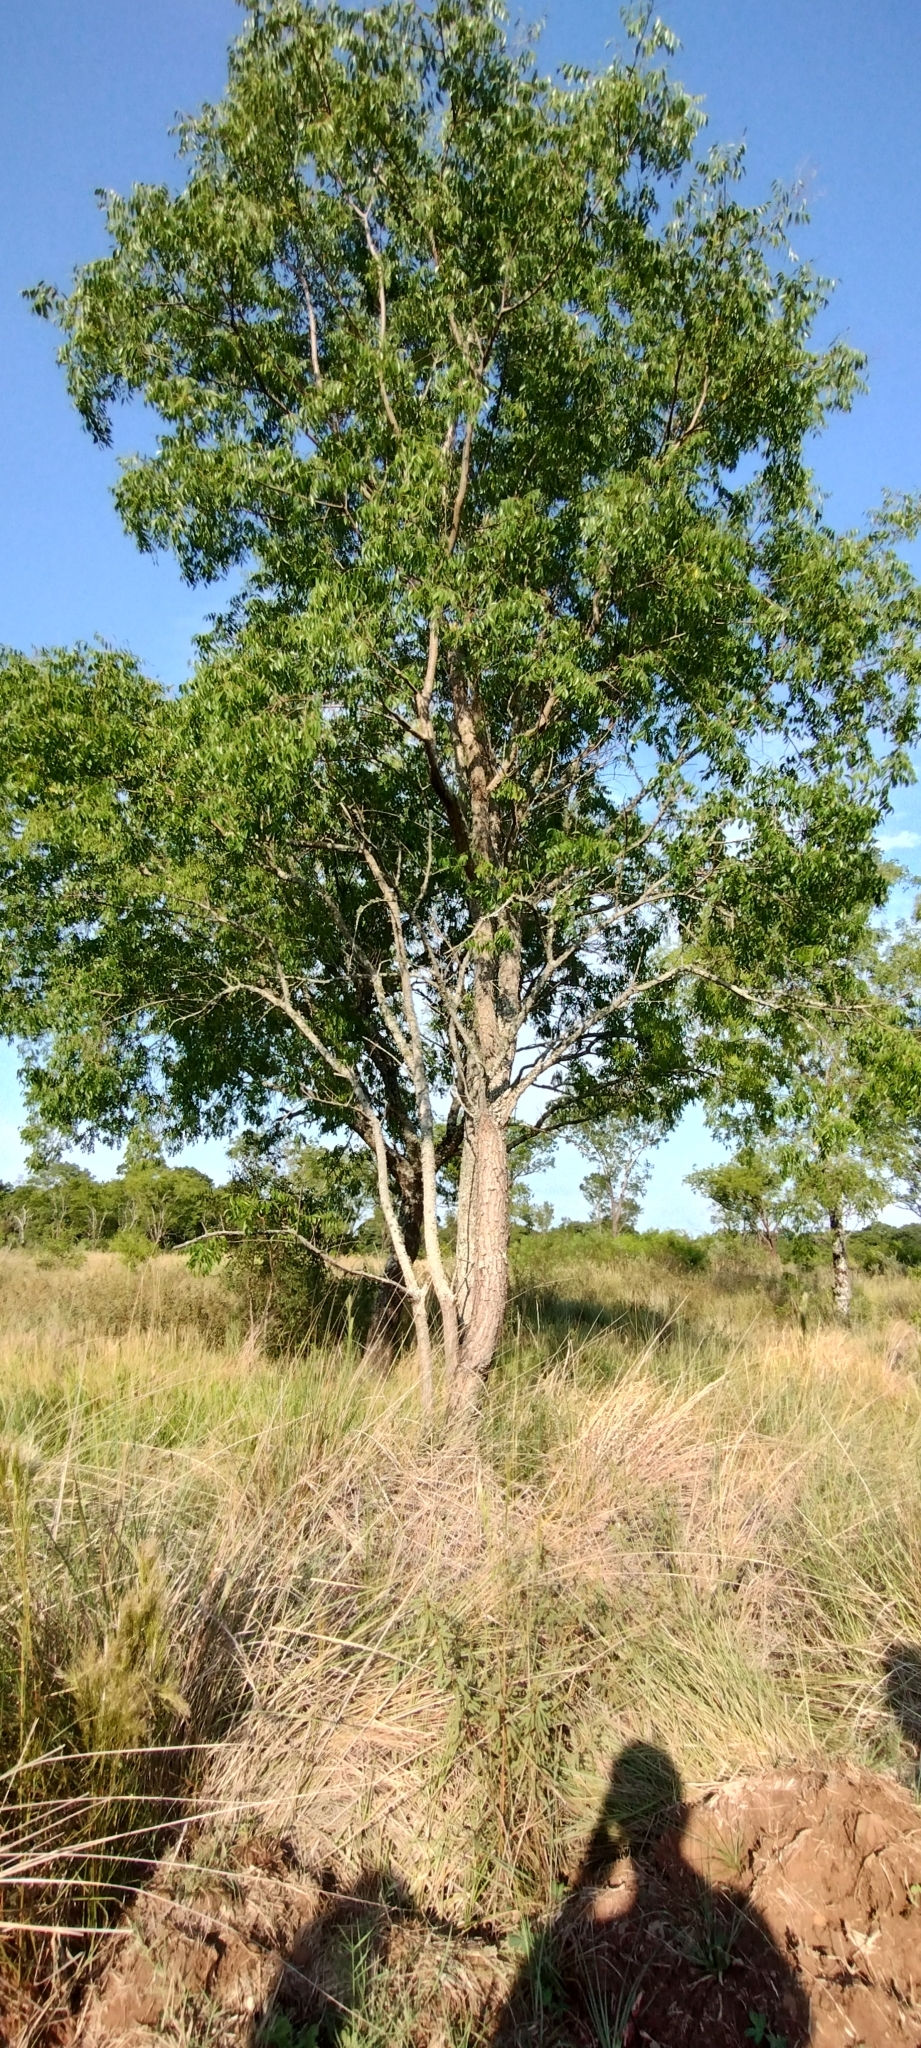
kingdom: Plantae
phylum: Tracheophyta
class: Magnoliopsida
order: Sapindales
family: Anacardiaceae
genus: Myracrodruon
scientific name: Myracrodruon balansae
